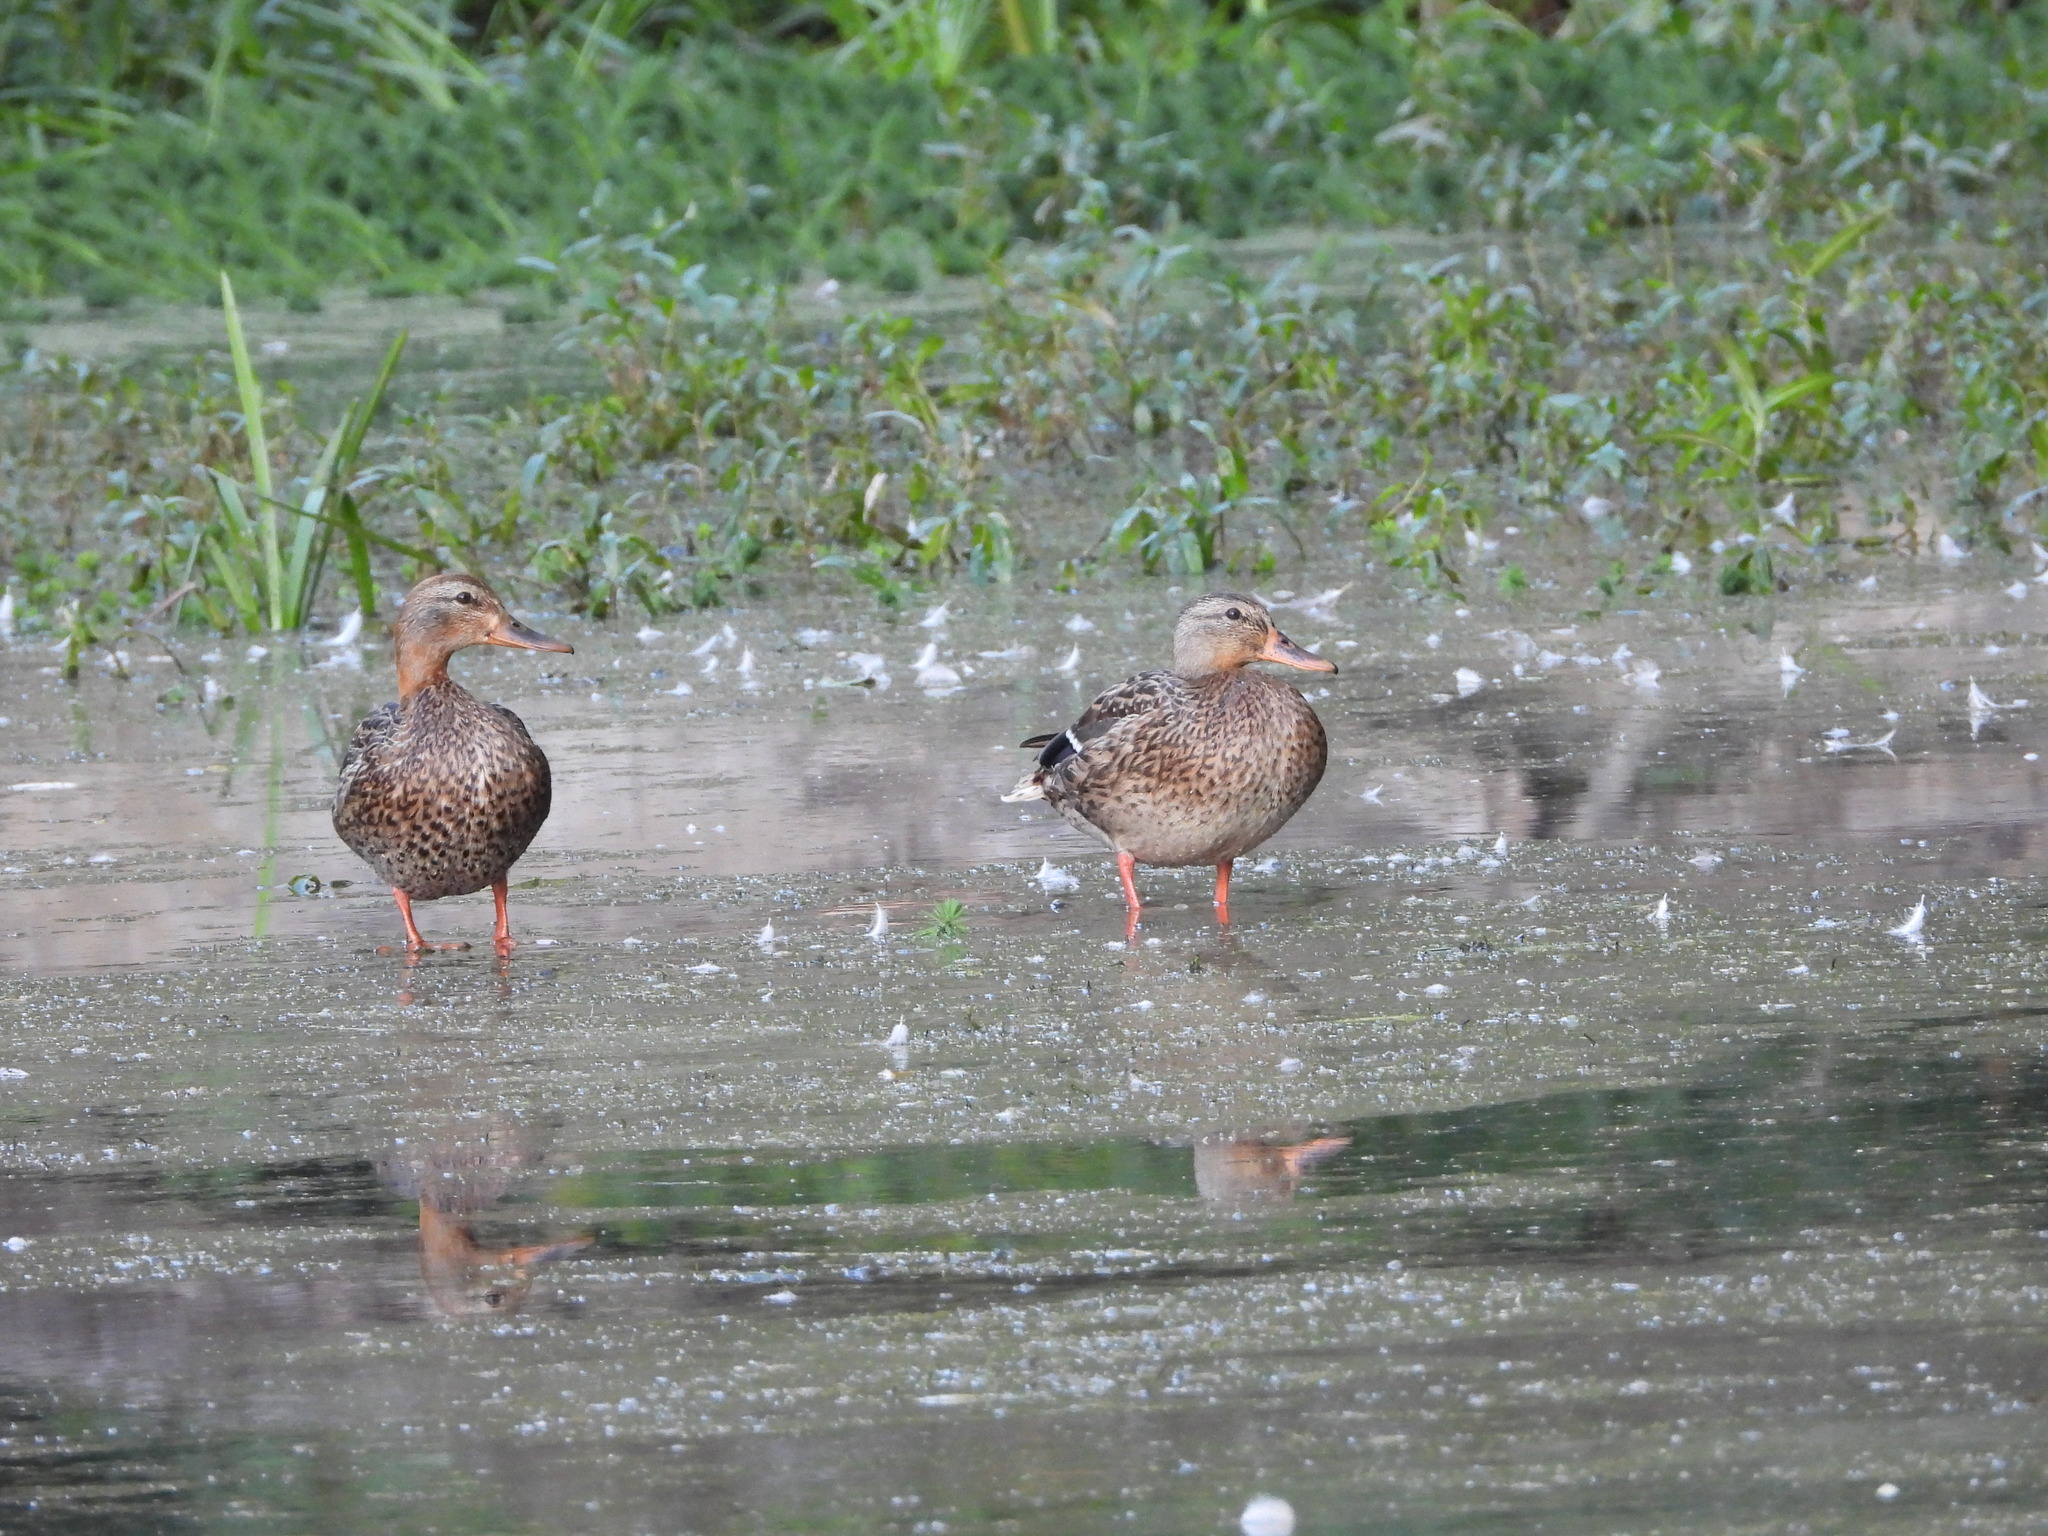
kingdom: Animalia
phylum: Chordata
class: Aves
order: Anseriformes
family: Anatidae
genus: Anas
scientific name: Anas platyrhynchos
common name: Mallard
